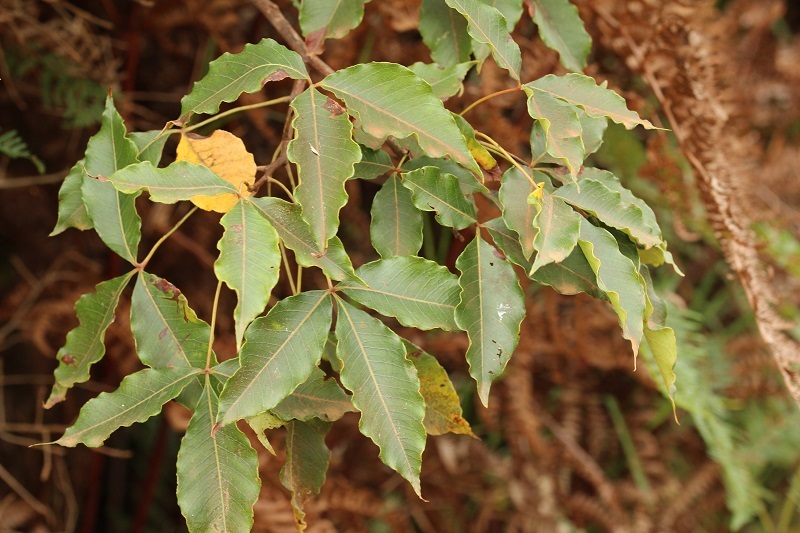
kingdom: Plantae
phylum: Tracheophyta
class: Magnoliopsida
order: Sapindales
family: Anacardiaceae
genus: Searsia
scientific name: Searsia chirindensis
